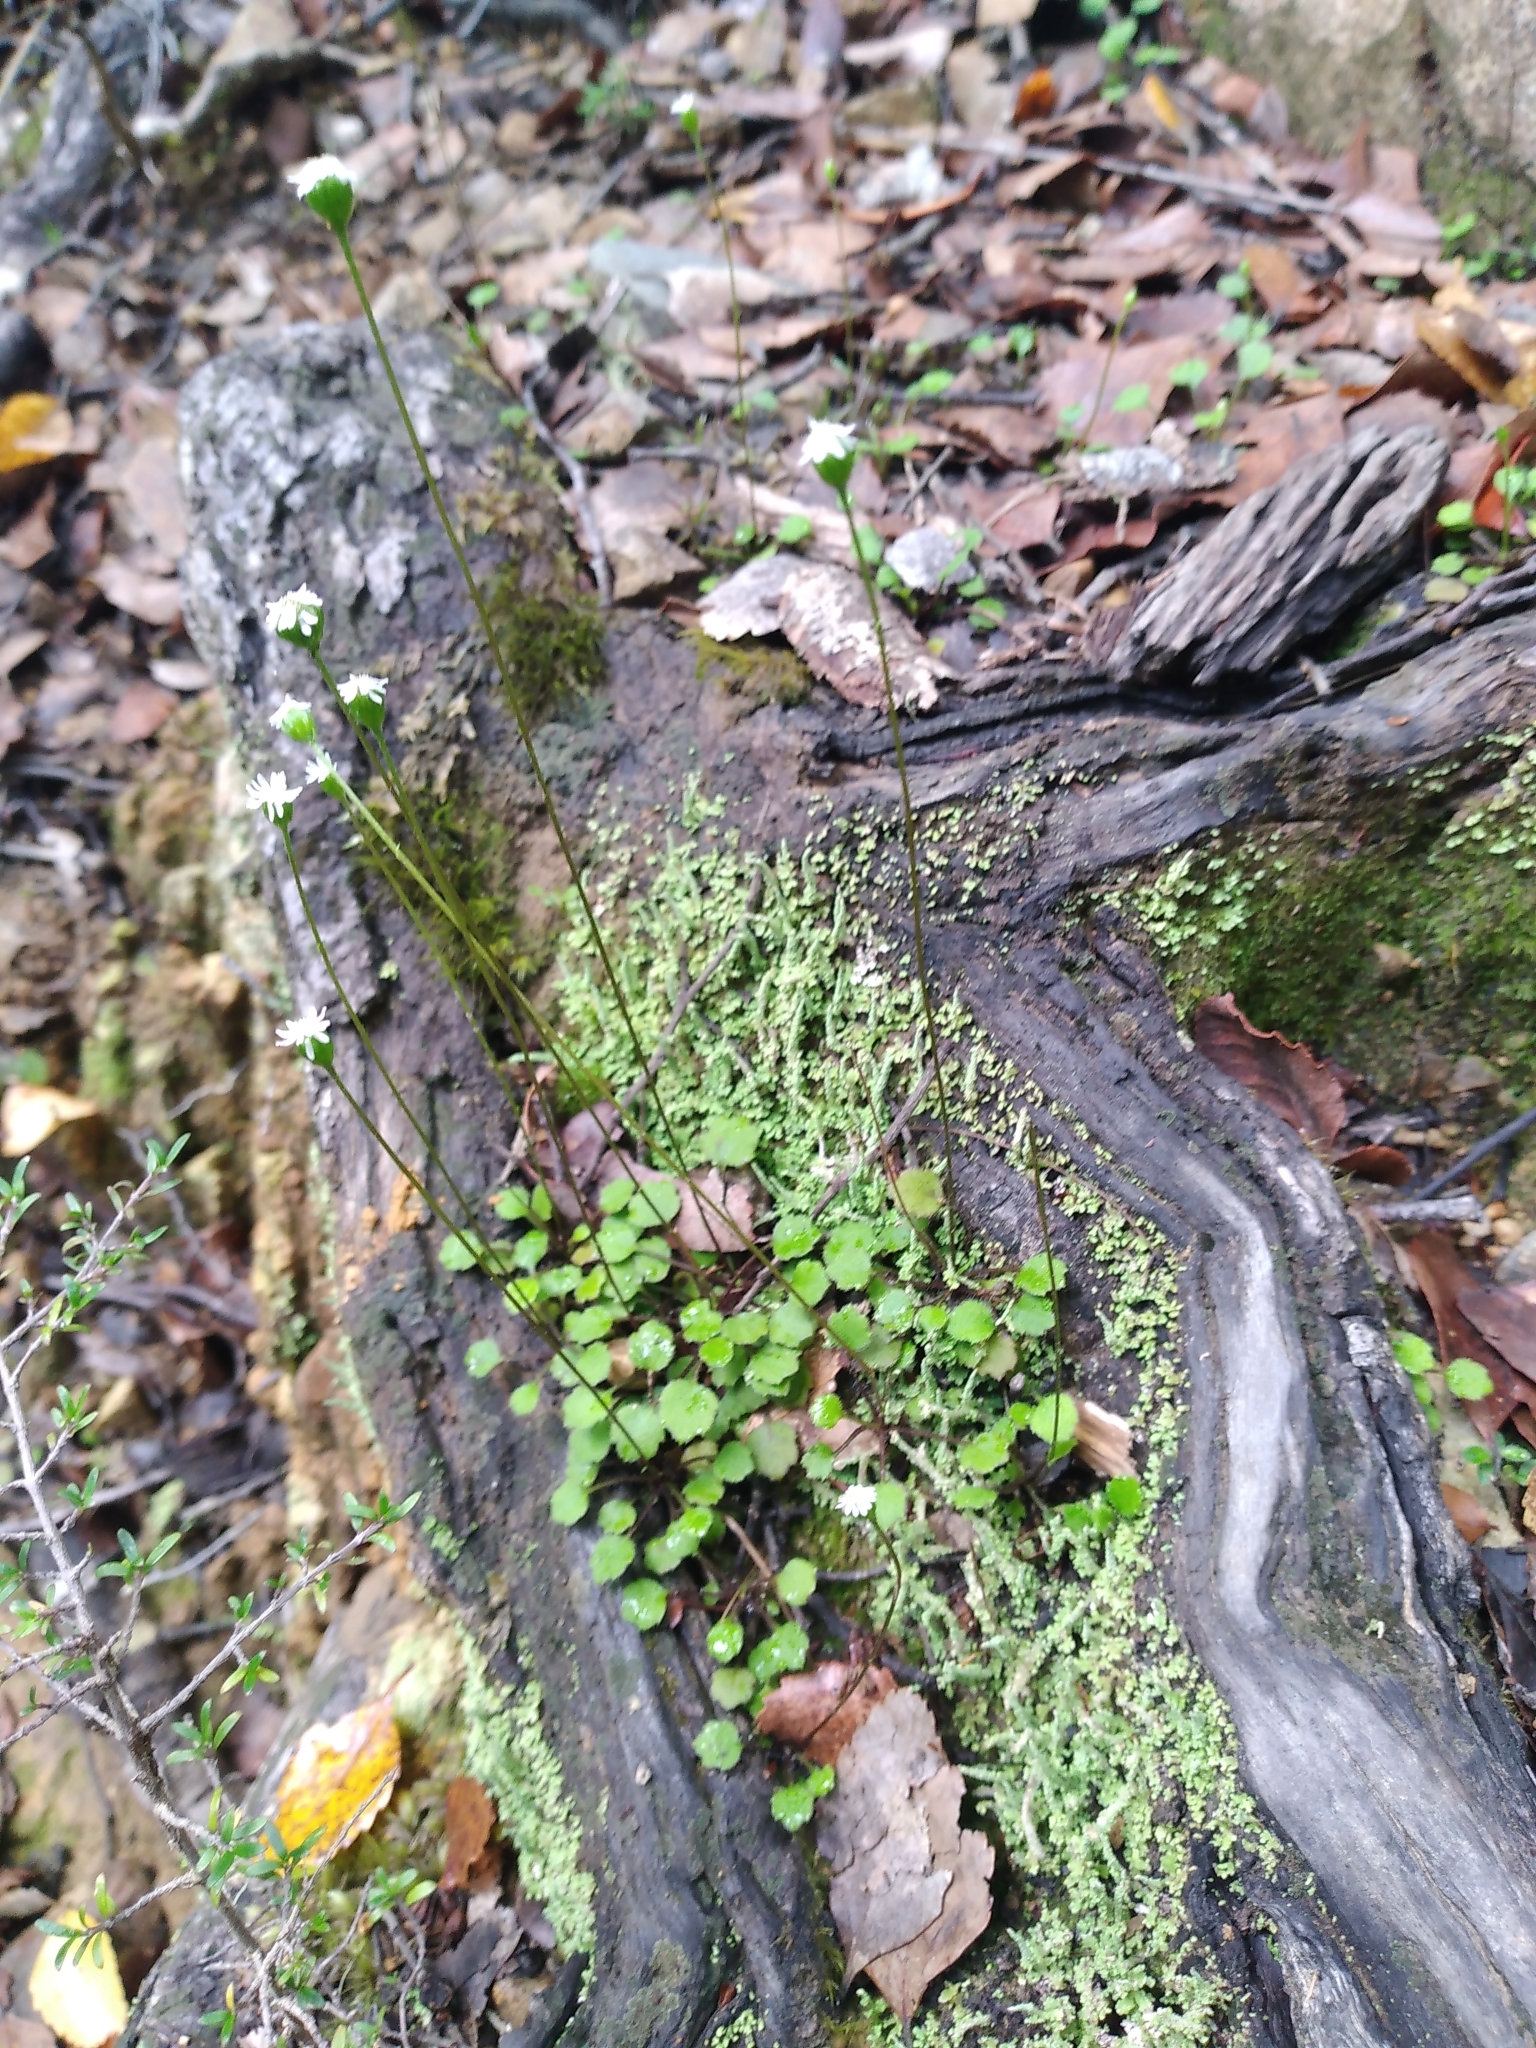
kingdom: Plantae
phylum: Tracheophyta
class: Magnoliopsida
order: Asterales
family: Asteraceae
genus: Lagenophora
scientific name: Lagenophora strangulata
